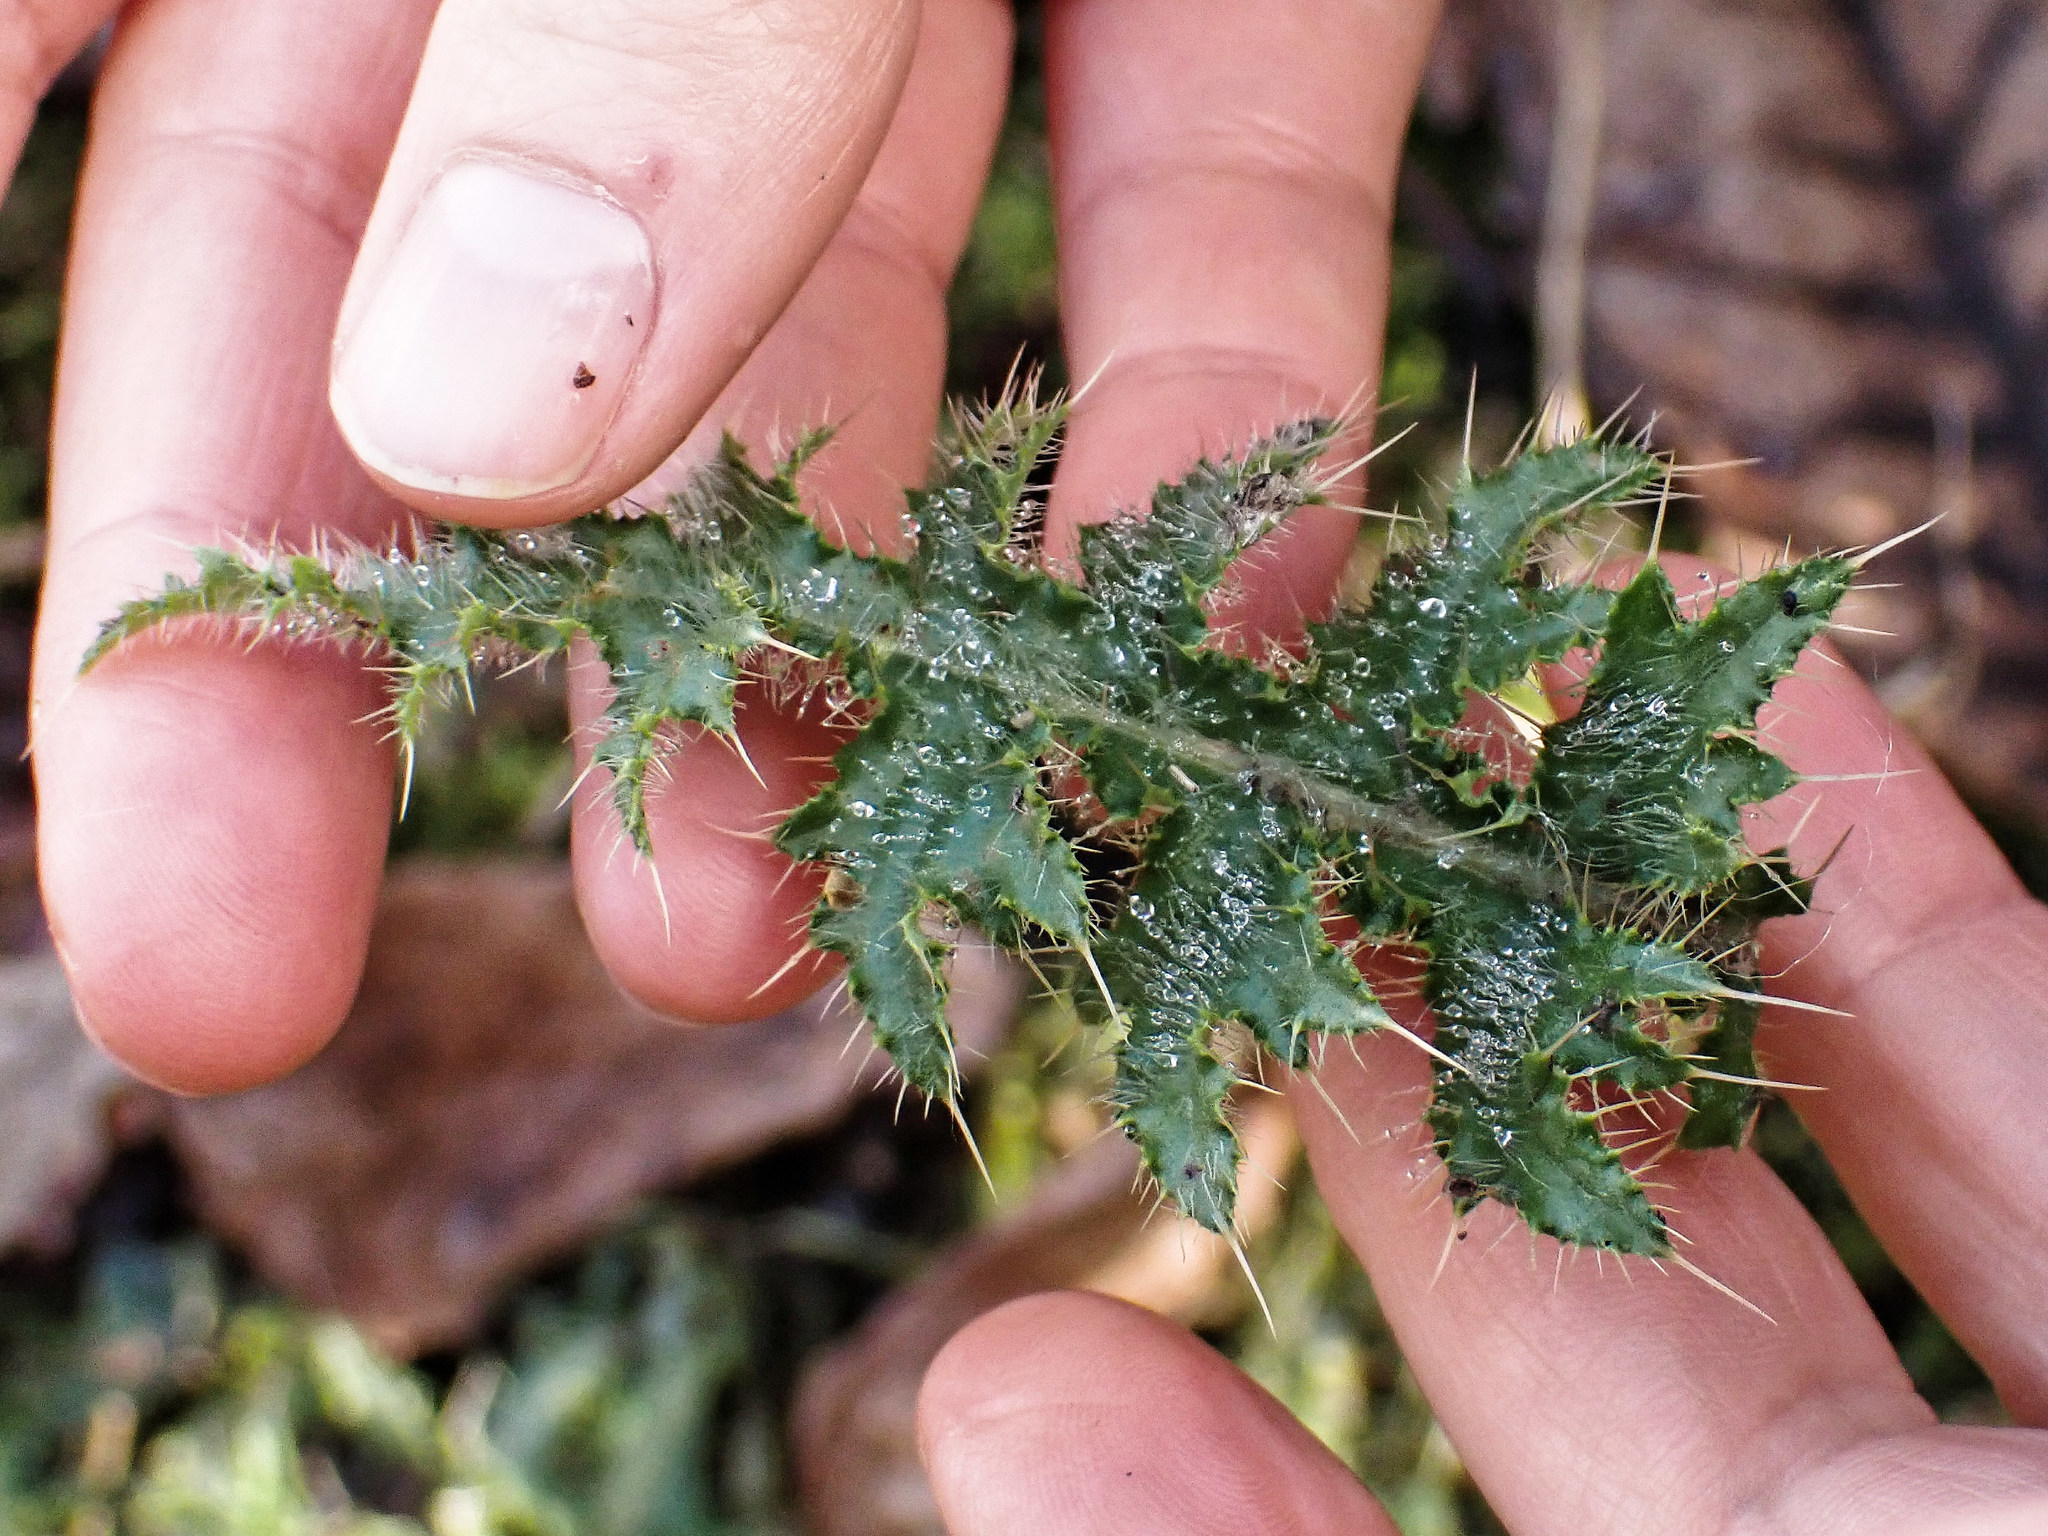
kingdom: Plantae
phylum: Tracheophyta
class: Magnoliopsida
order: Asterales
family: Asteraceae
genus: Cirsium
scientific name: Cirsium vulgare
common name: Bull thistle
